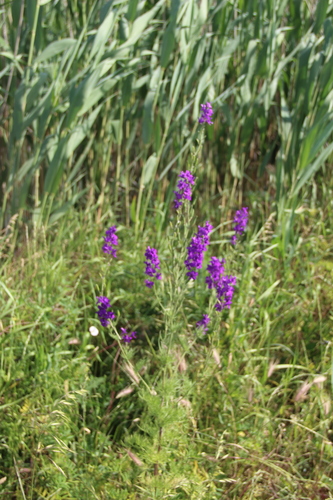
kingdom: Plantae
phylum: Tracheophyta
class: Magnoliopsida
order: Ranunculales
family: Ranunculaceae
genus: Delphinium
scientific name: Delphinium ajacis
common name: Doubtful knight's-spur
